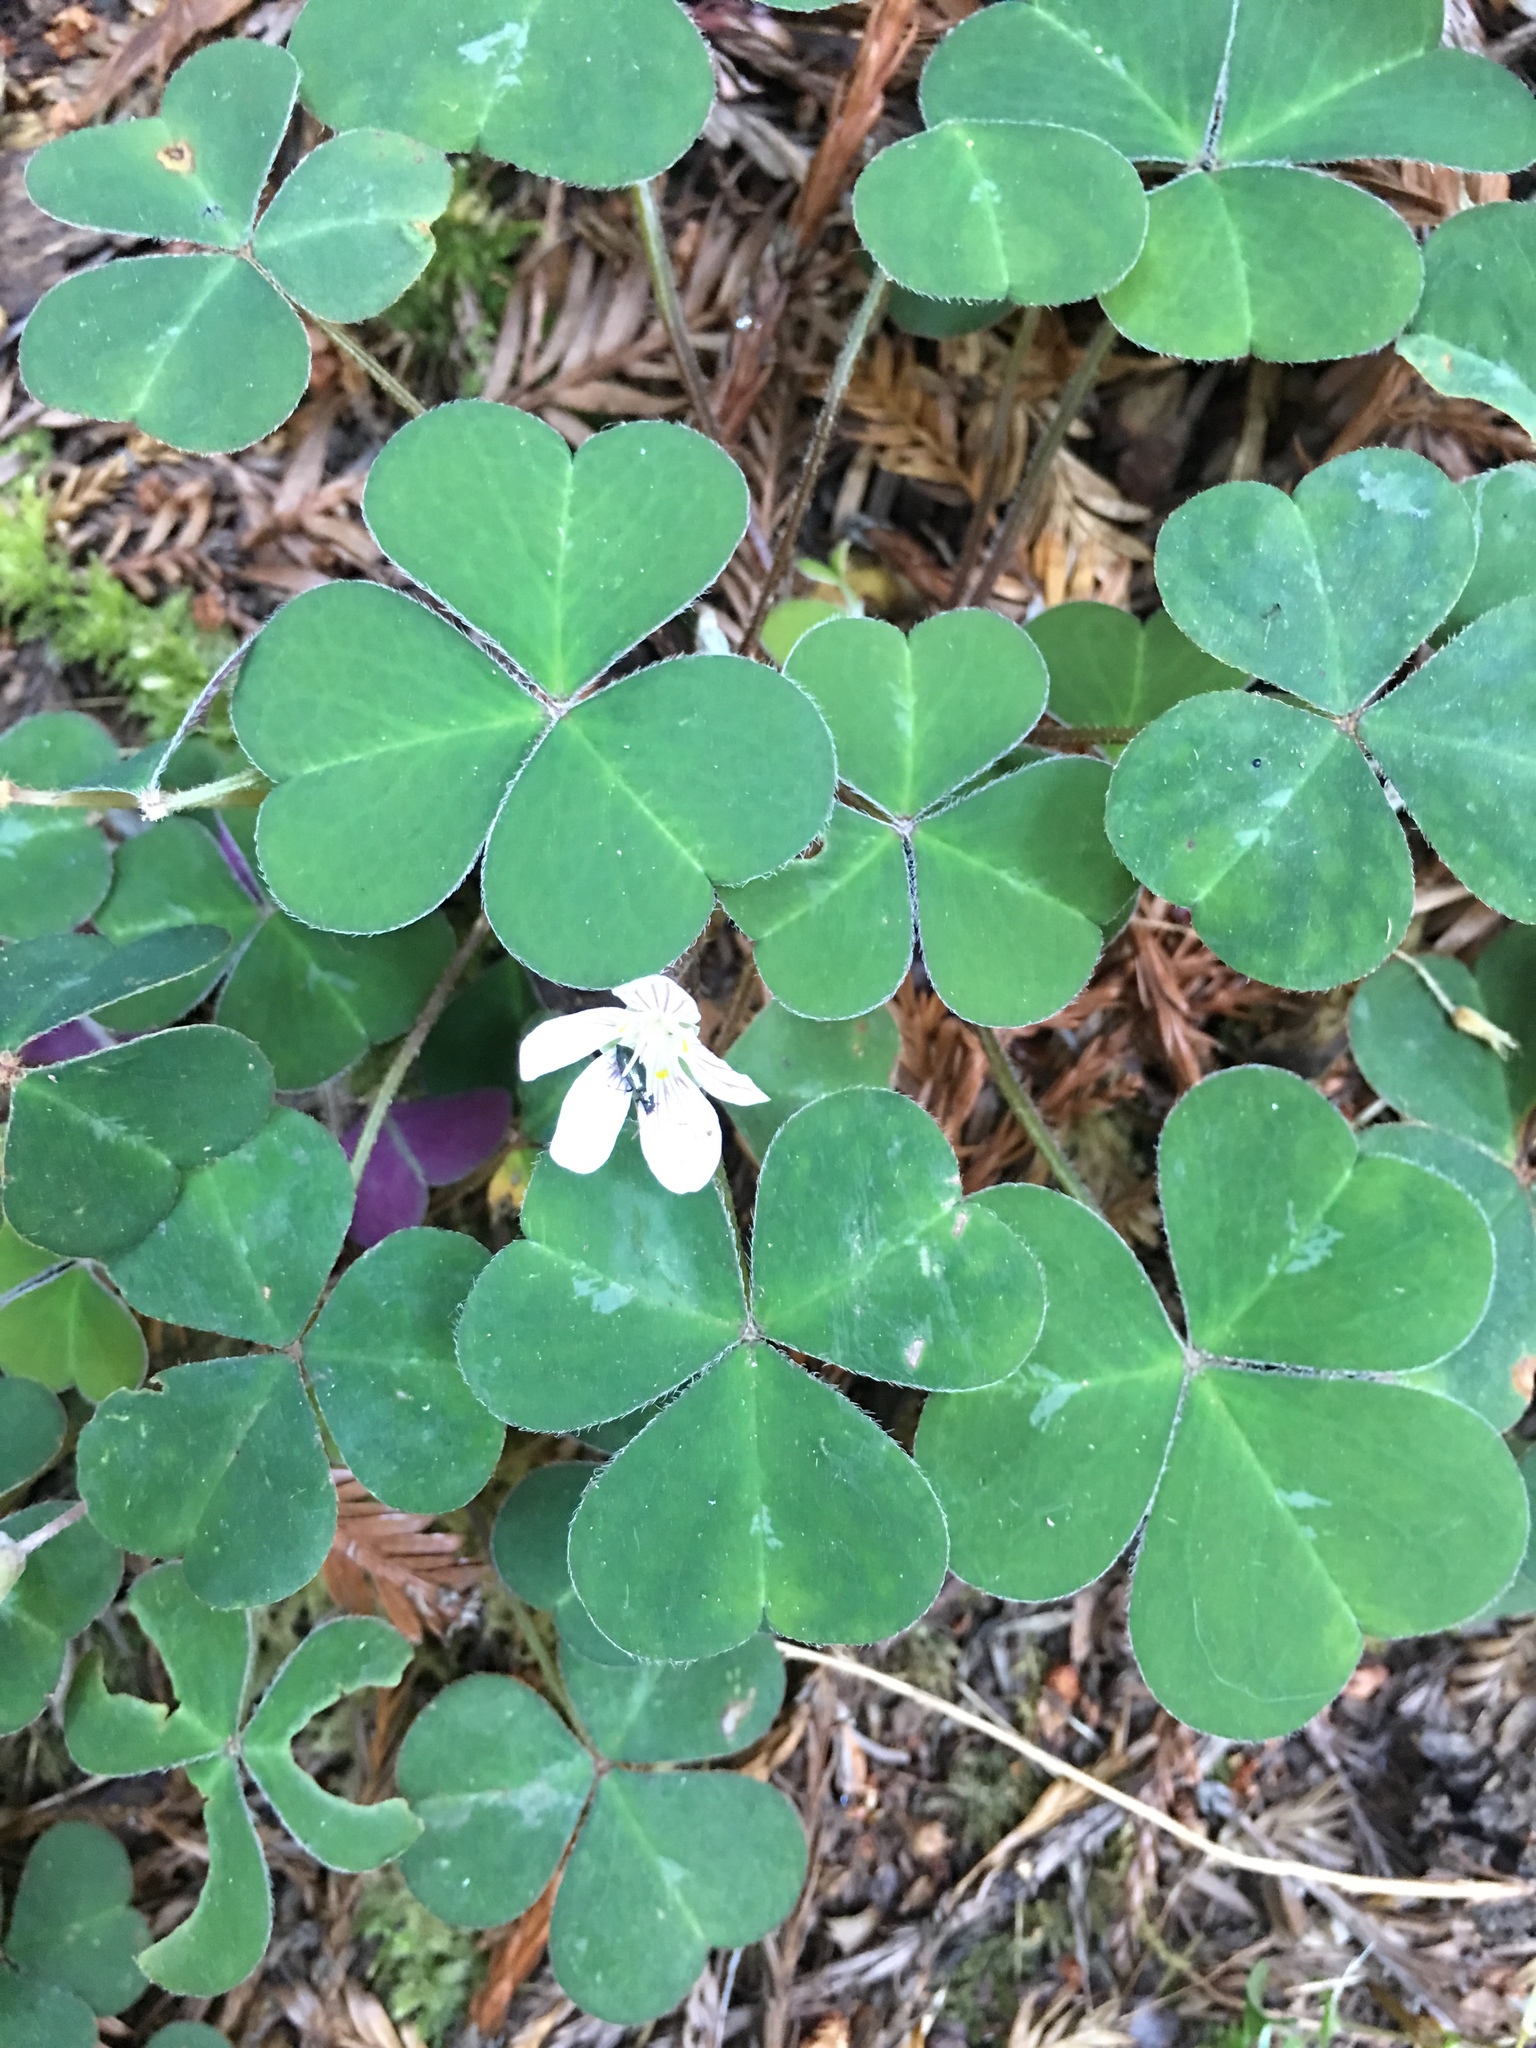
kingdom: Plantae
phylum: Tracheophyta
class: Magnoliopsida
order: Oxalidales
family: Oxalidaceae
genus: Oxalis
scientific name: Oxalis oregana
